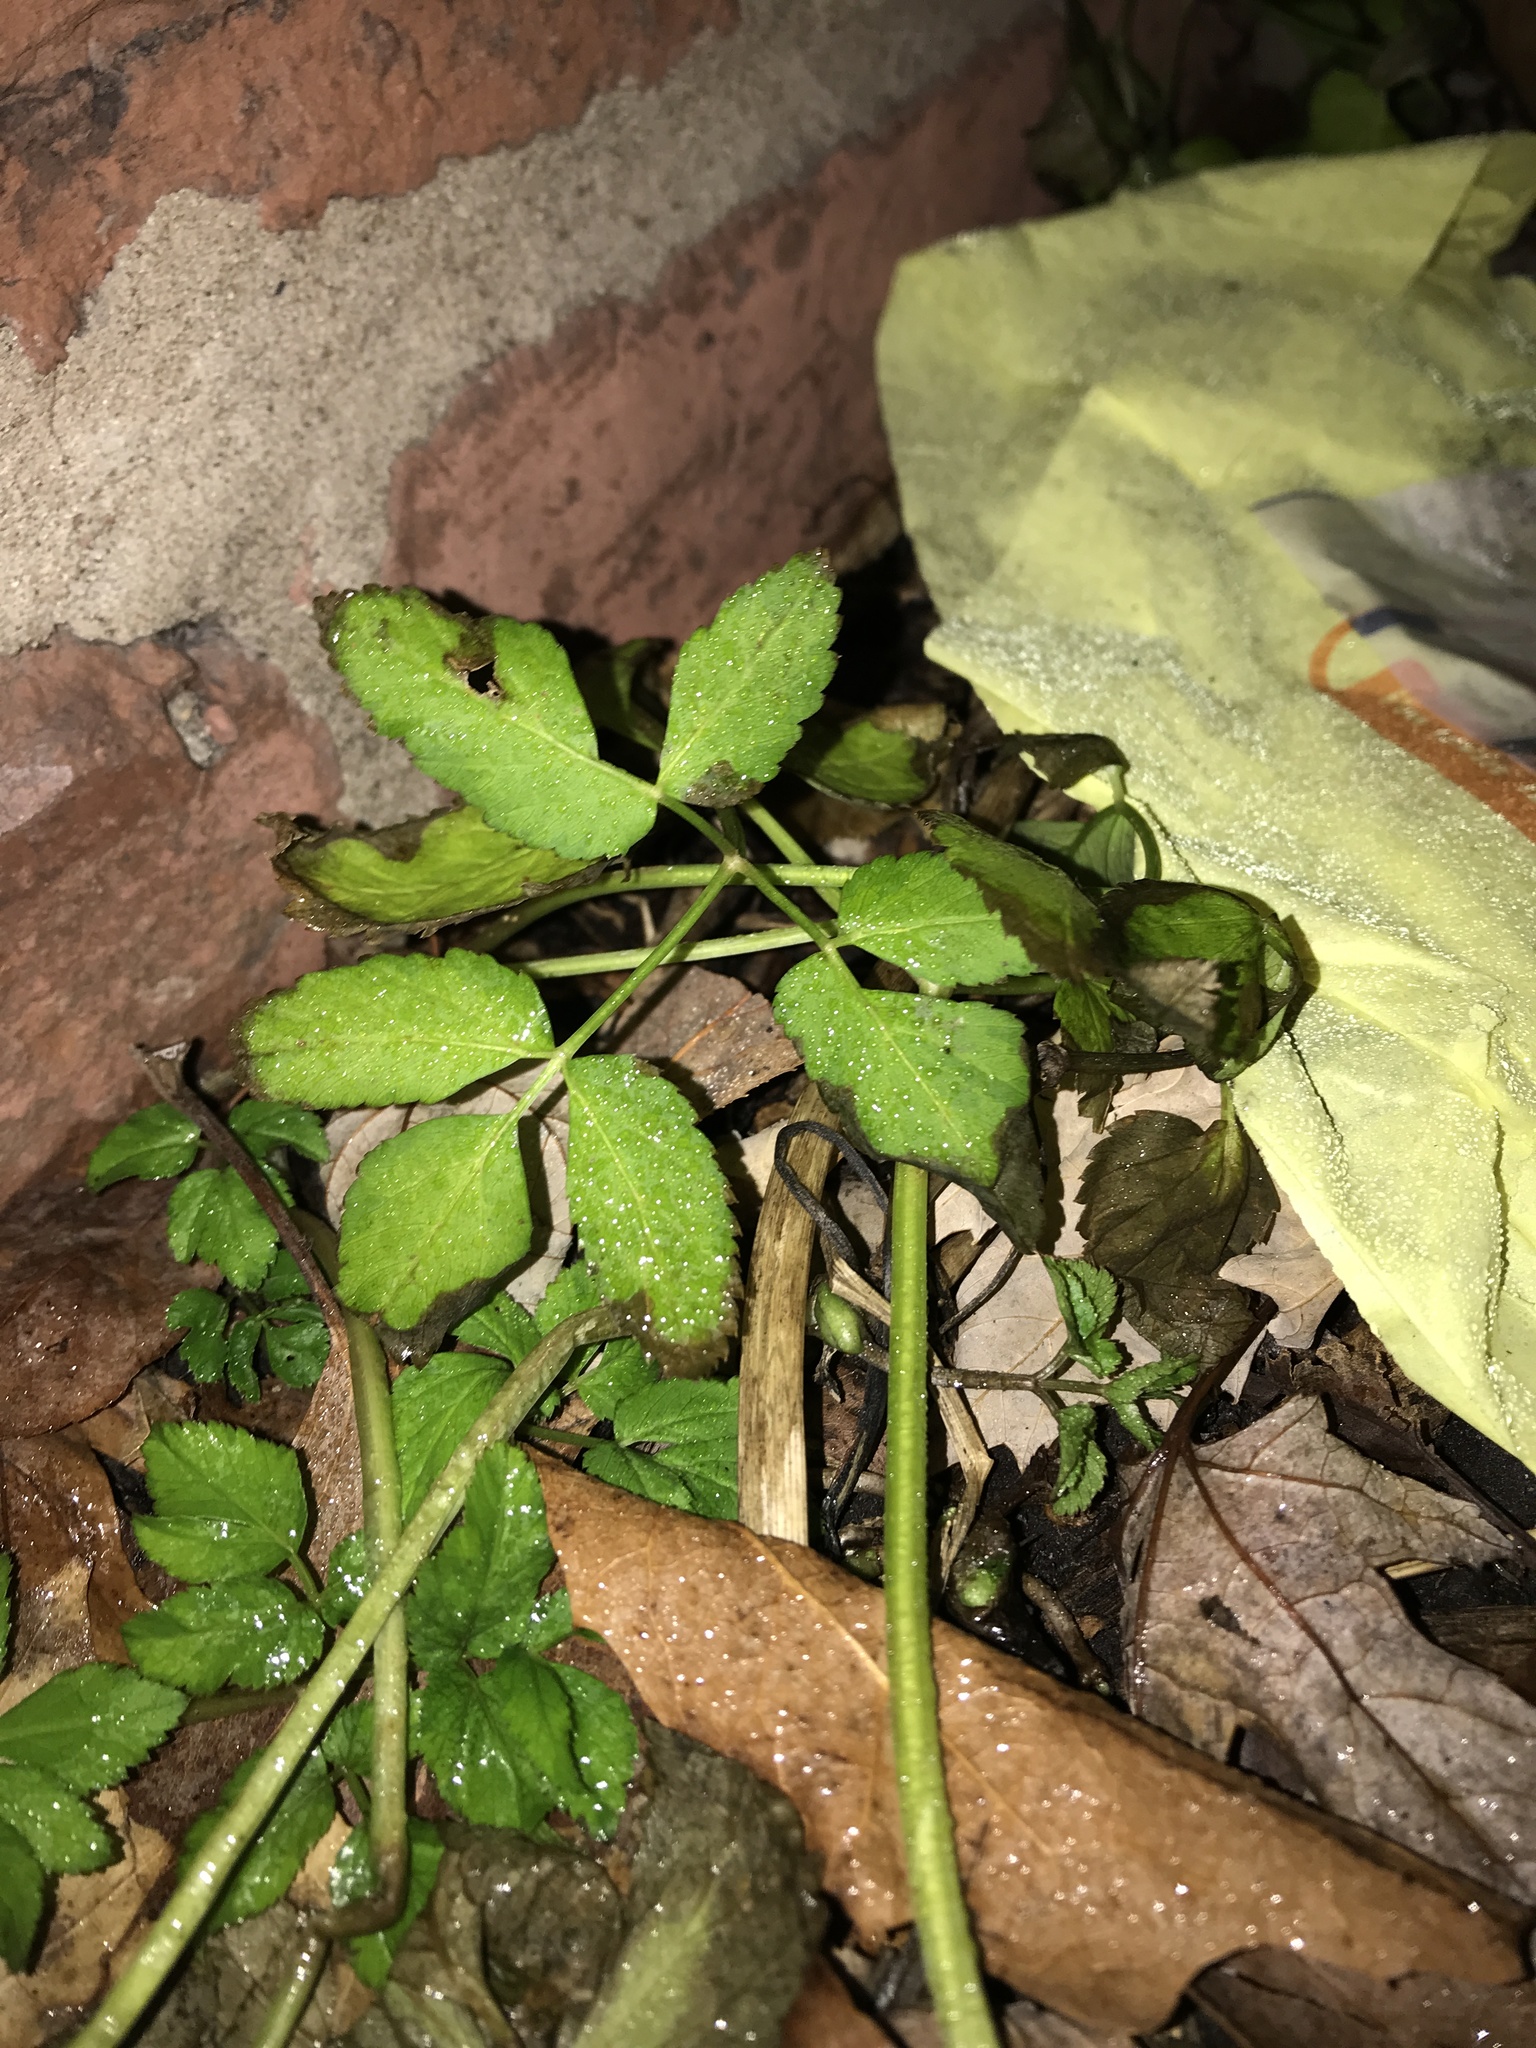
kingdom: Plantae
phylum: Tracheophyta
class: Magnoliopsida
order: Apiales
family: Apiaceae
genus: Aegopodium
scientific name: Aegopodium podagraria
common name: Ground-elder
